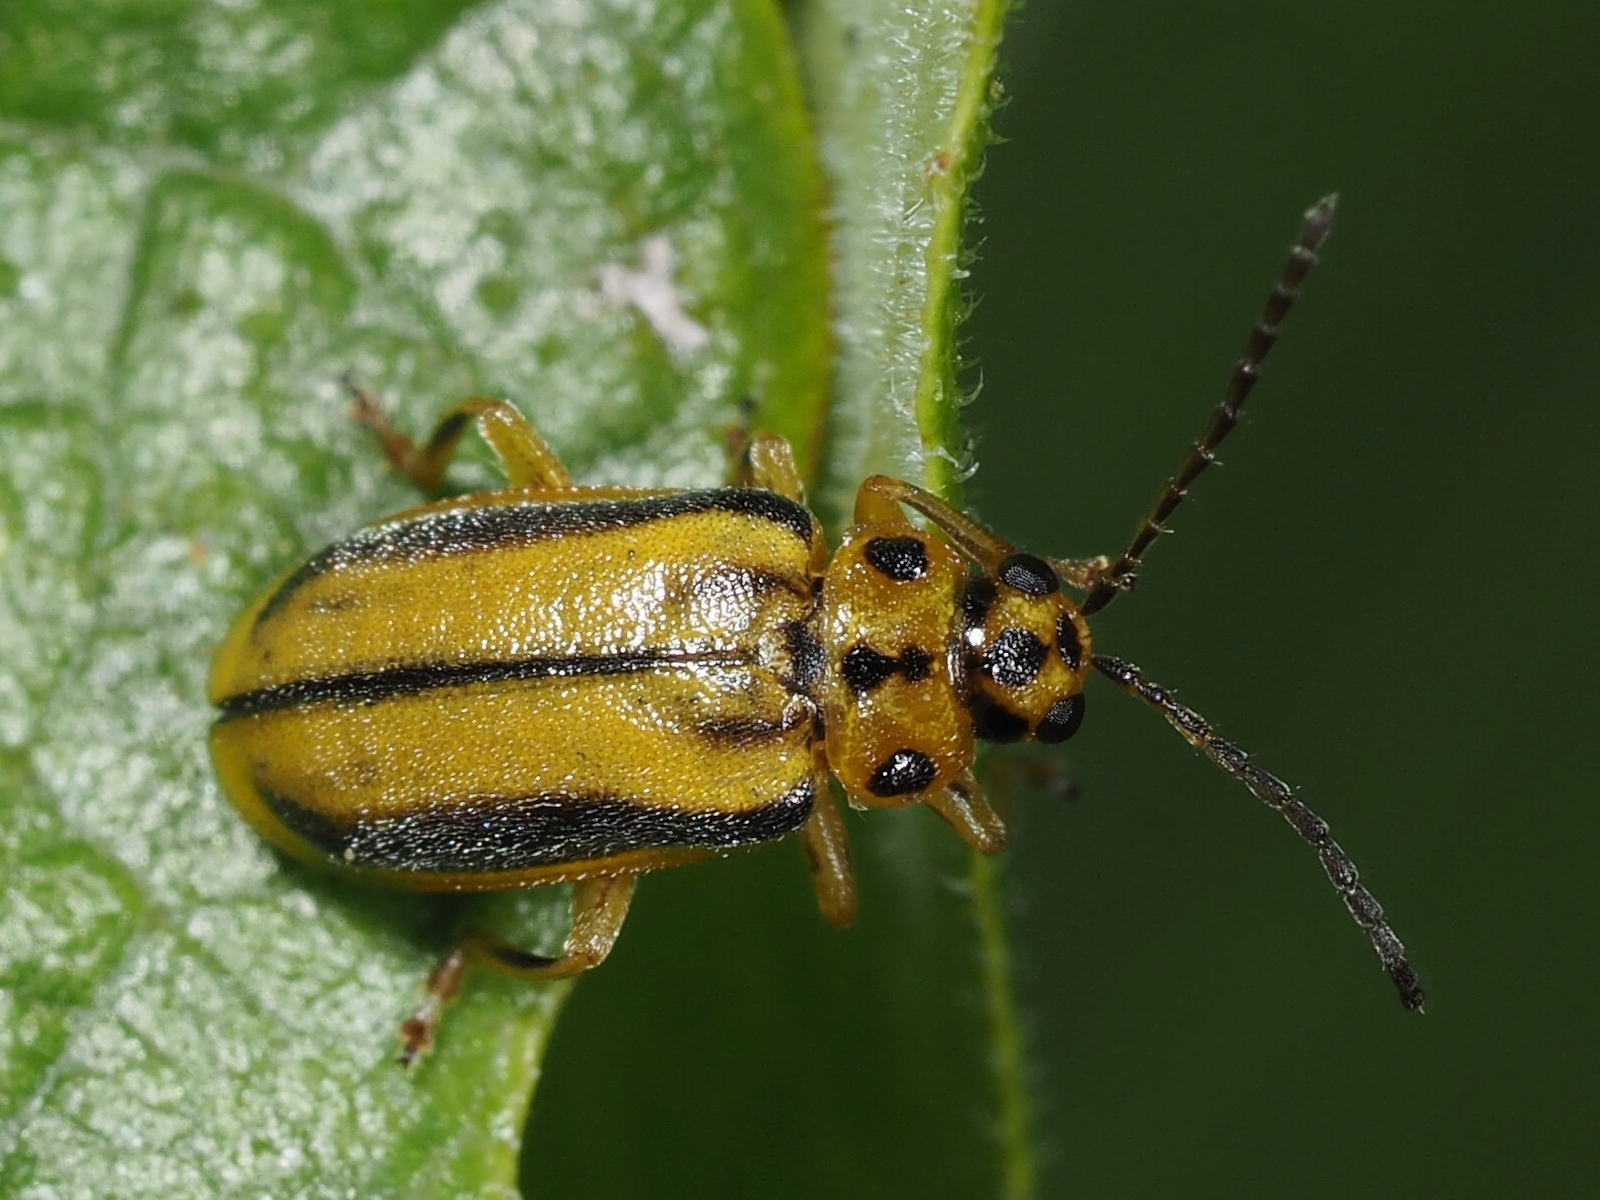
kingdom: Animalia
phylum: Arthropoda
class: Insecta
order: Coleoptera
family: Chrysomelidae
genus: Xanthogaleruca
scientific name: Xanthogaleruca luteola
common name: Elm leaf beetle
